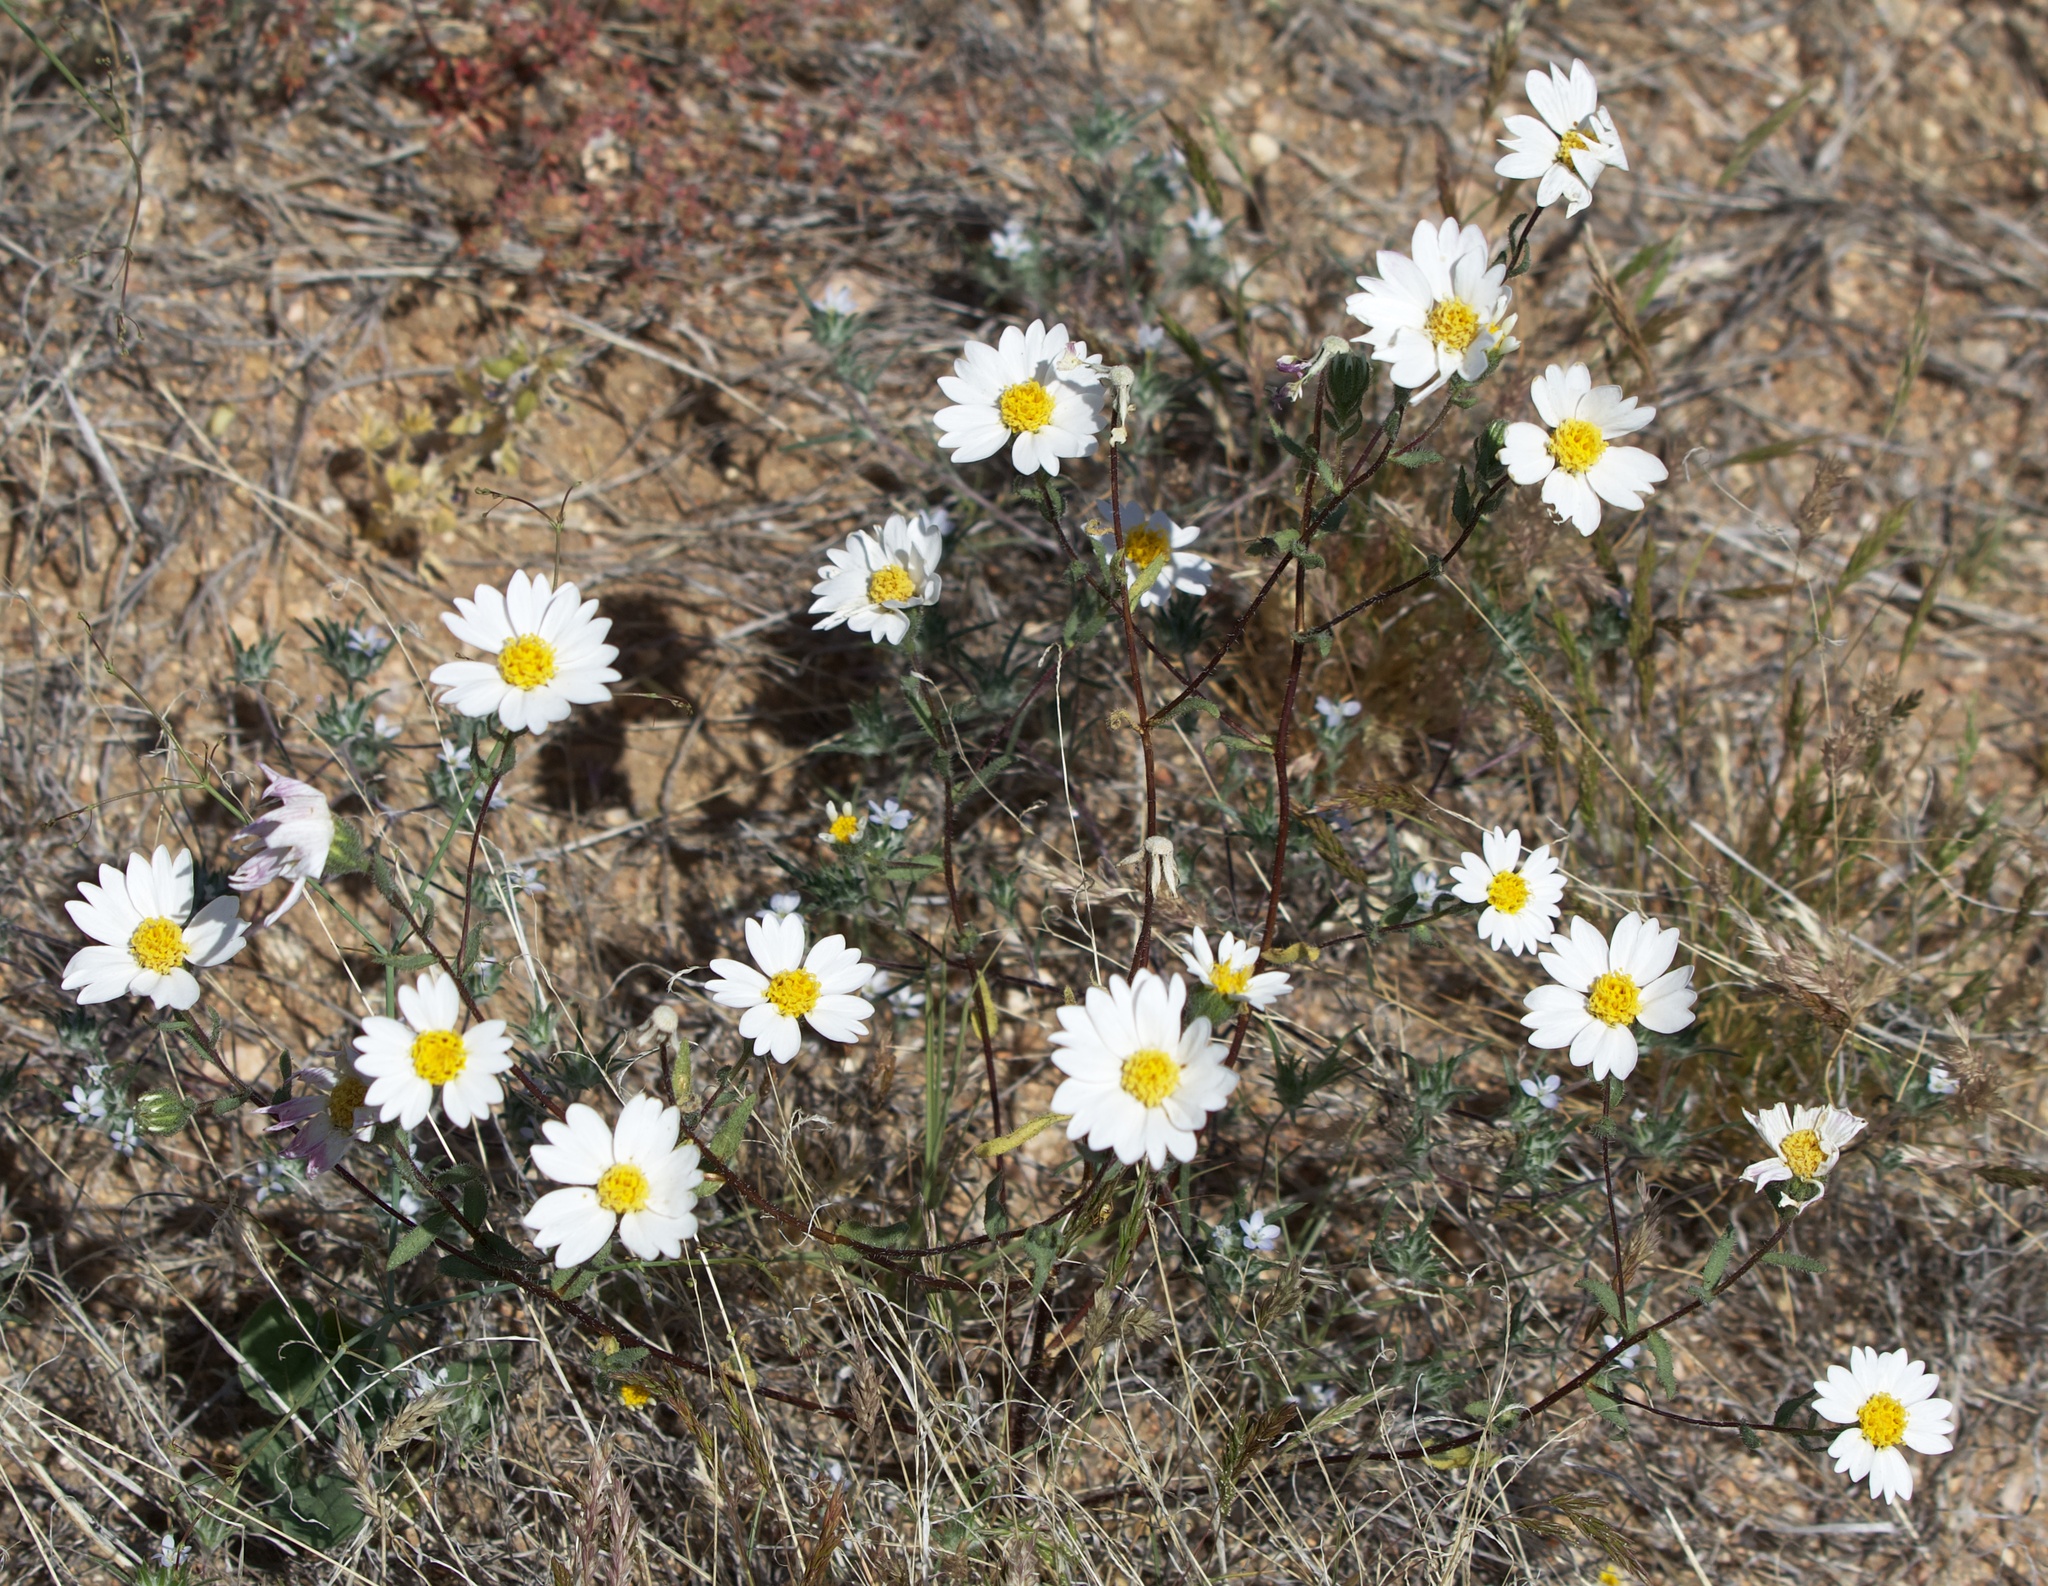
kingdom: Plantae
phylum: Tracheophyta
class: Magnoliopsida
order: Asterales
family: Asteraceae
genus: Layia
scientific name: Layia glandulosa
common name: White layia
